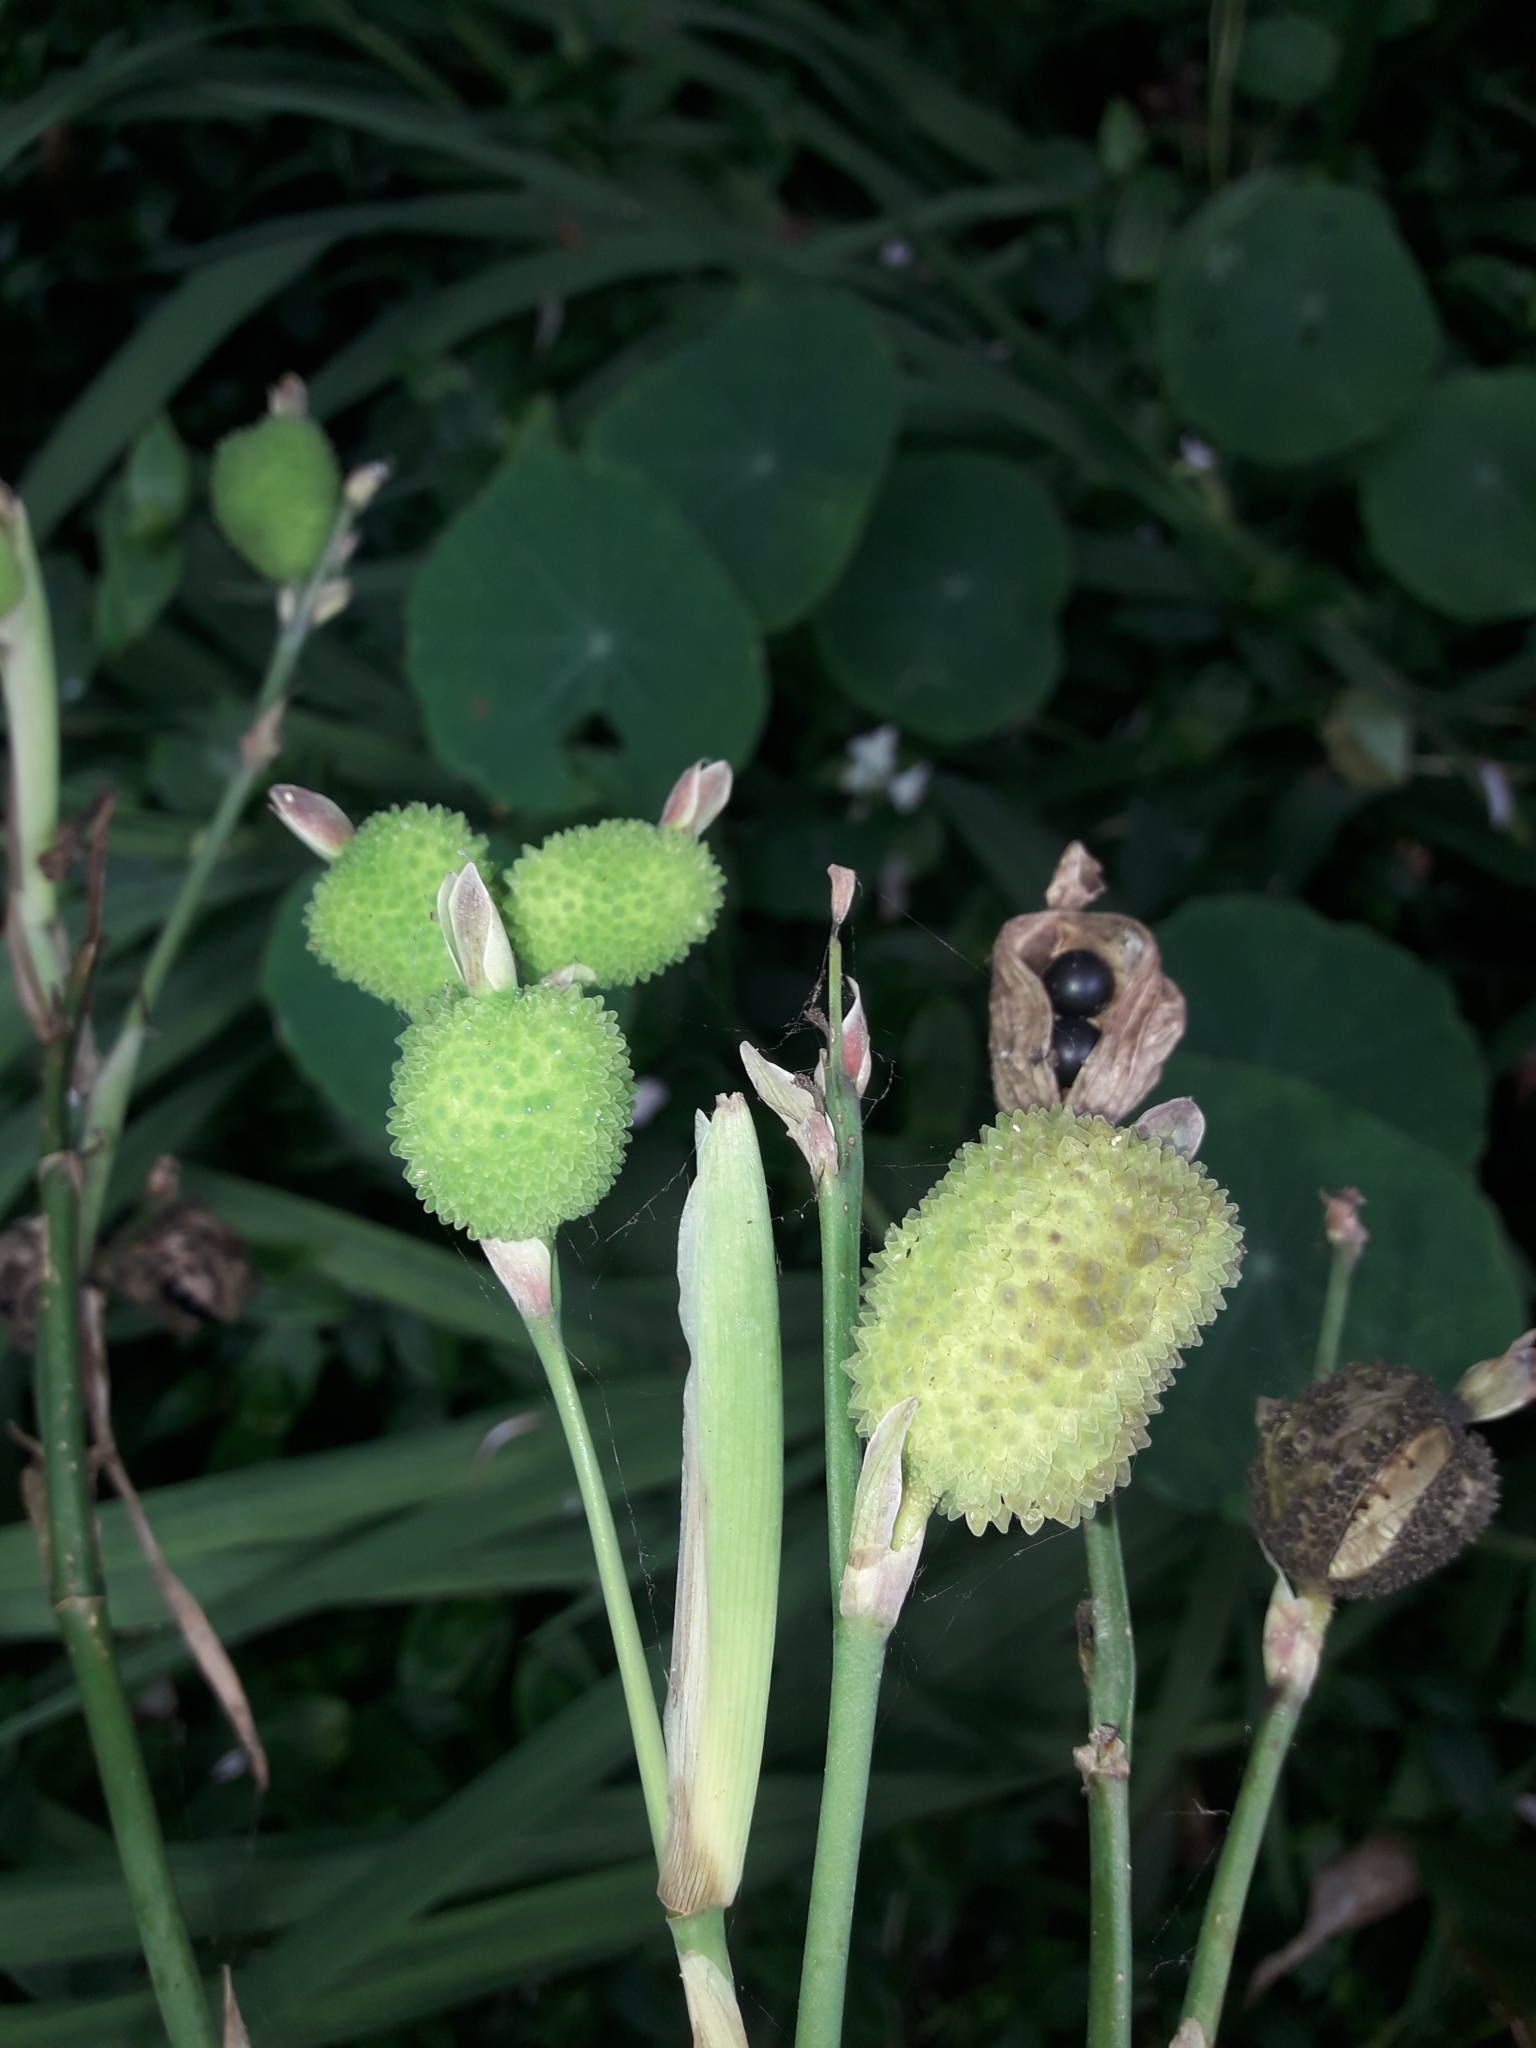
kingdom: Plantae
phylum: Tracheophyta
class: Liliopsida
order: Zingiberales
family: Cannaceae
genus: Canna
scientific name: Canna indica
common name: Indian shot
